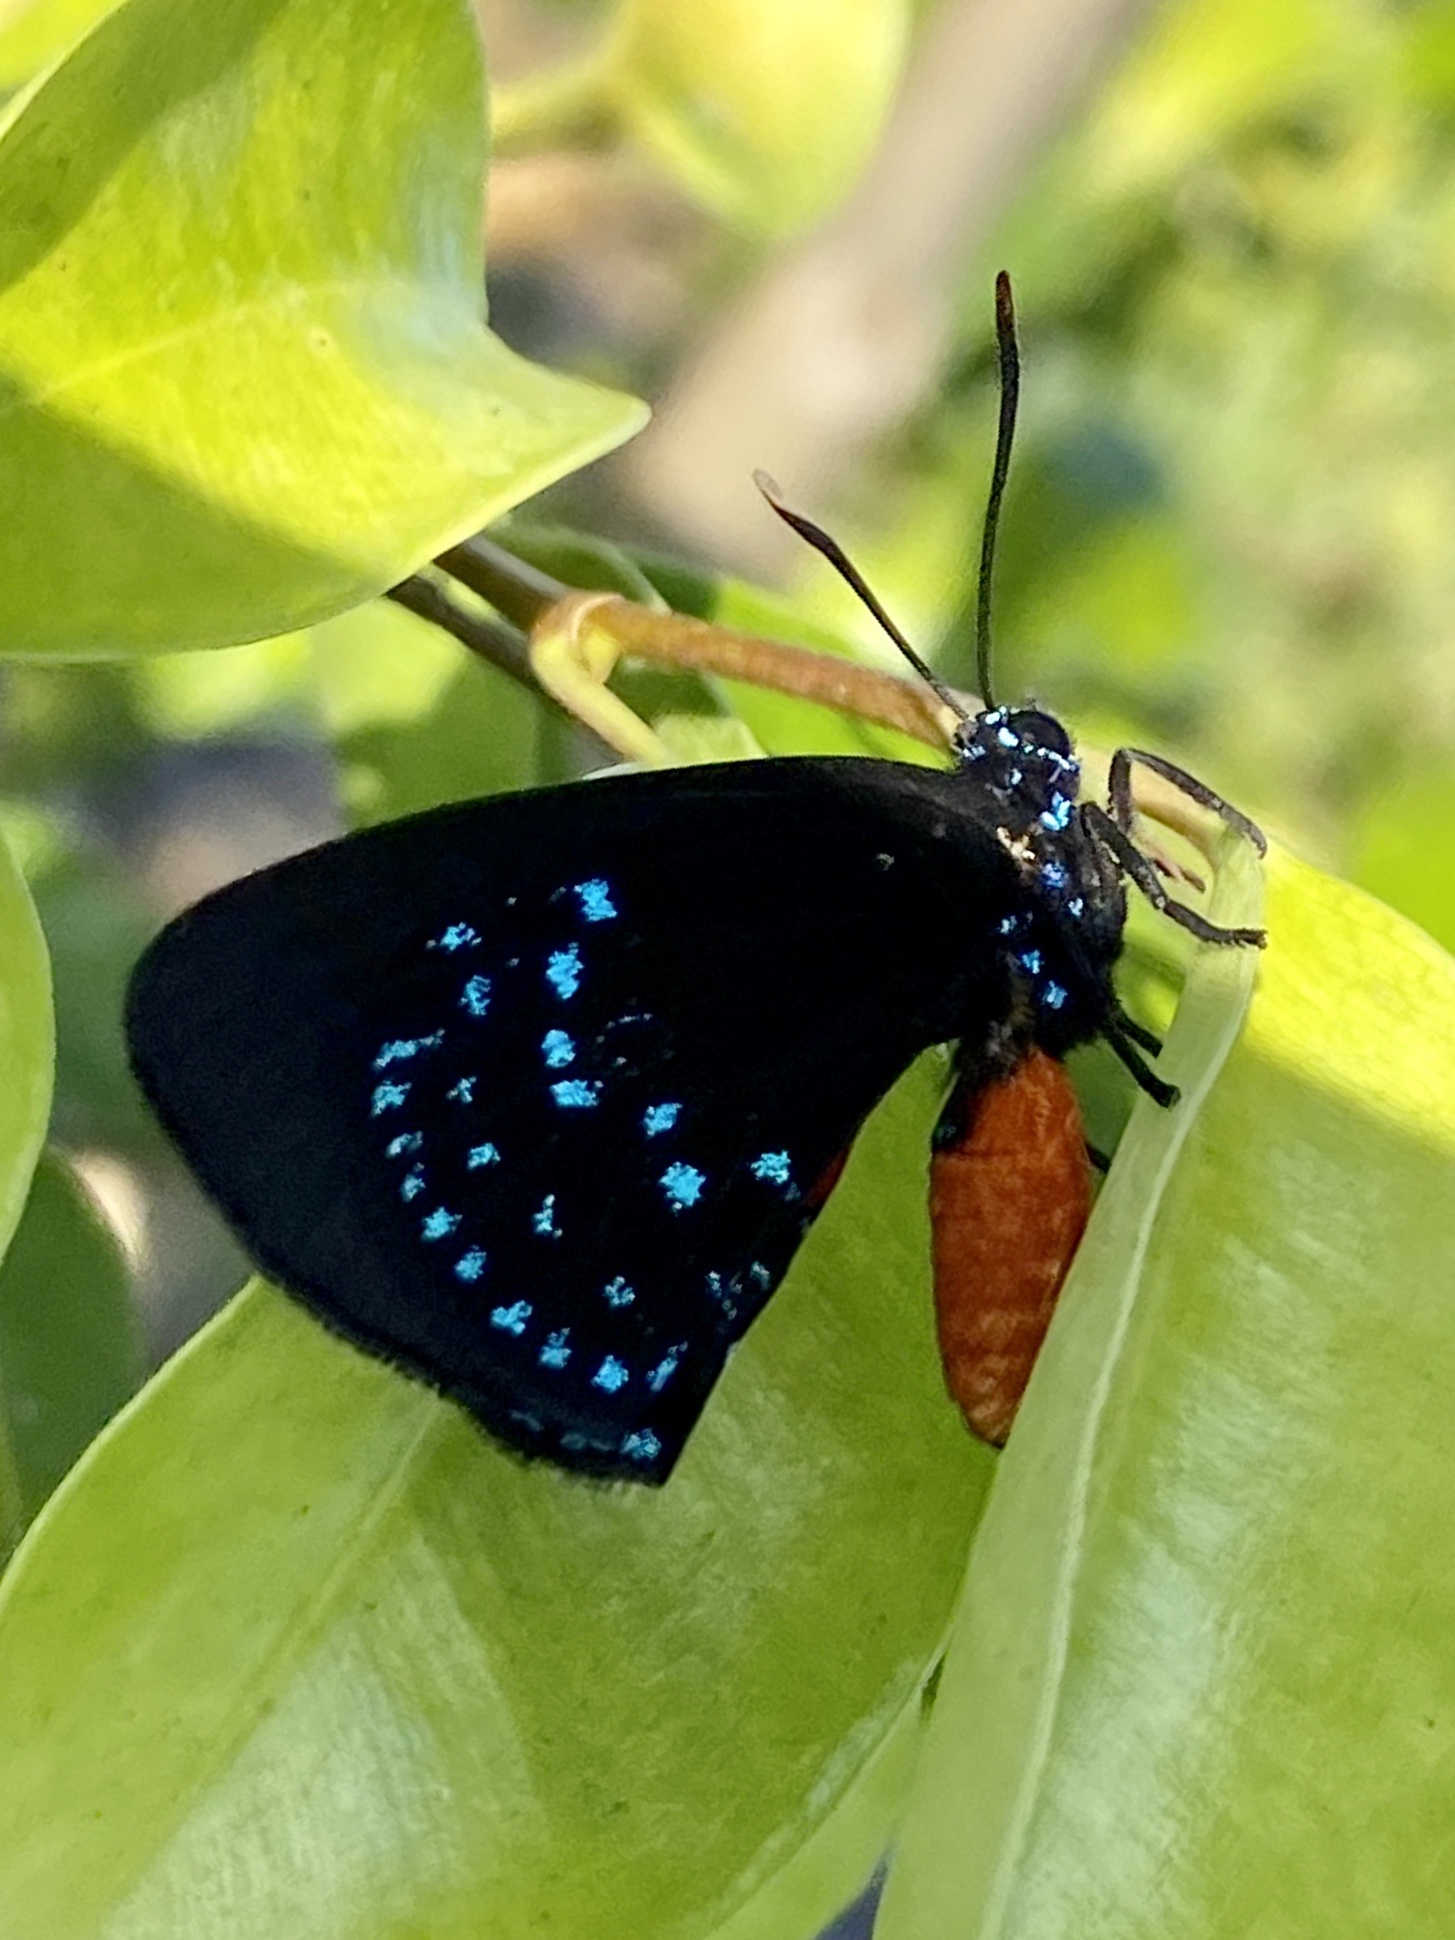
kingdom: Animalia
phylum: Arthropoda
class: Insecta
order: Lepidoptera
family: Lycaenidae
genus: Eumaeus
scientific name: Eumaeus atala
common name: Atala
